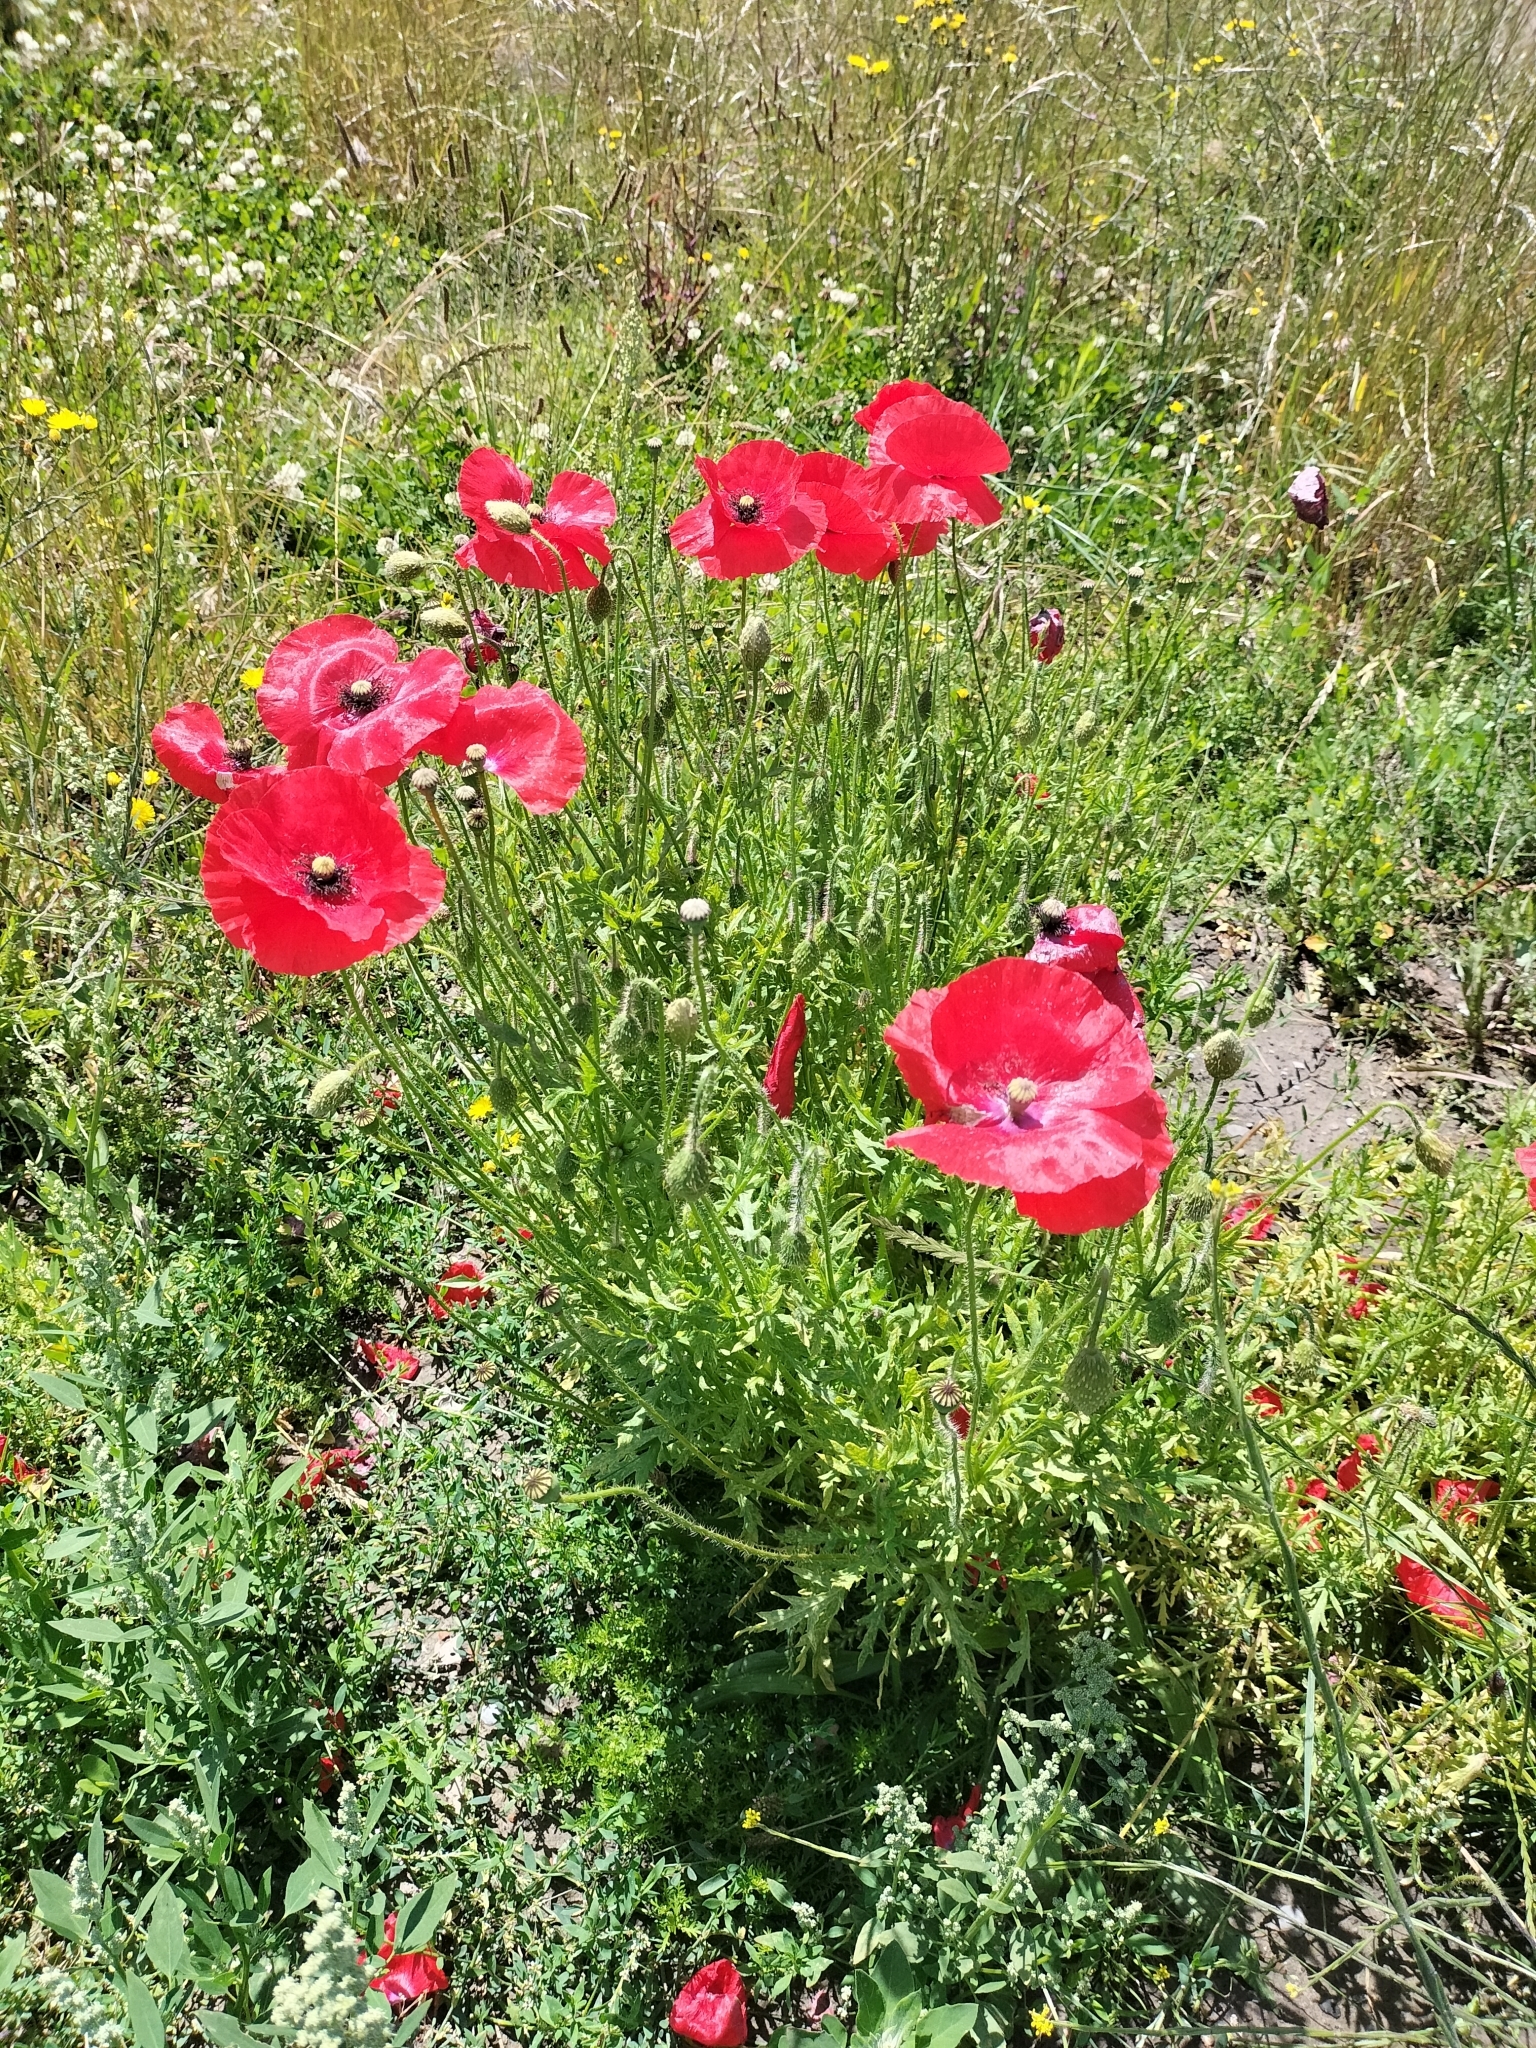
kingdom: Plantae
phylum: Tracheophyta
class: Magnoliopsida
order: Ranunculales
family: Papaveraceae
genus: Papaver
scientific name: Papaver rhoeas
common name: Corn poppy
